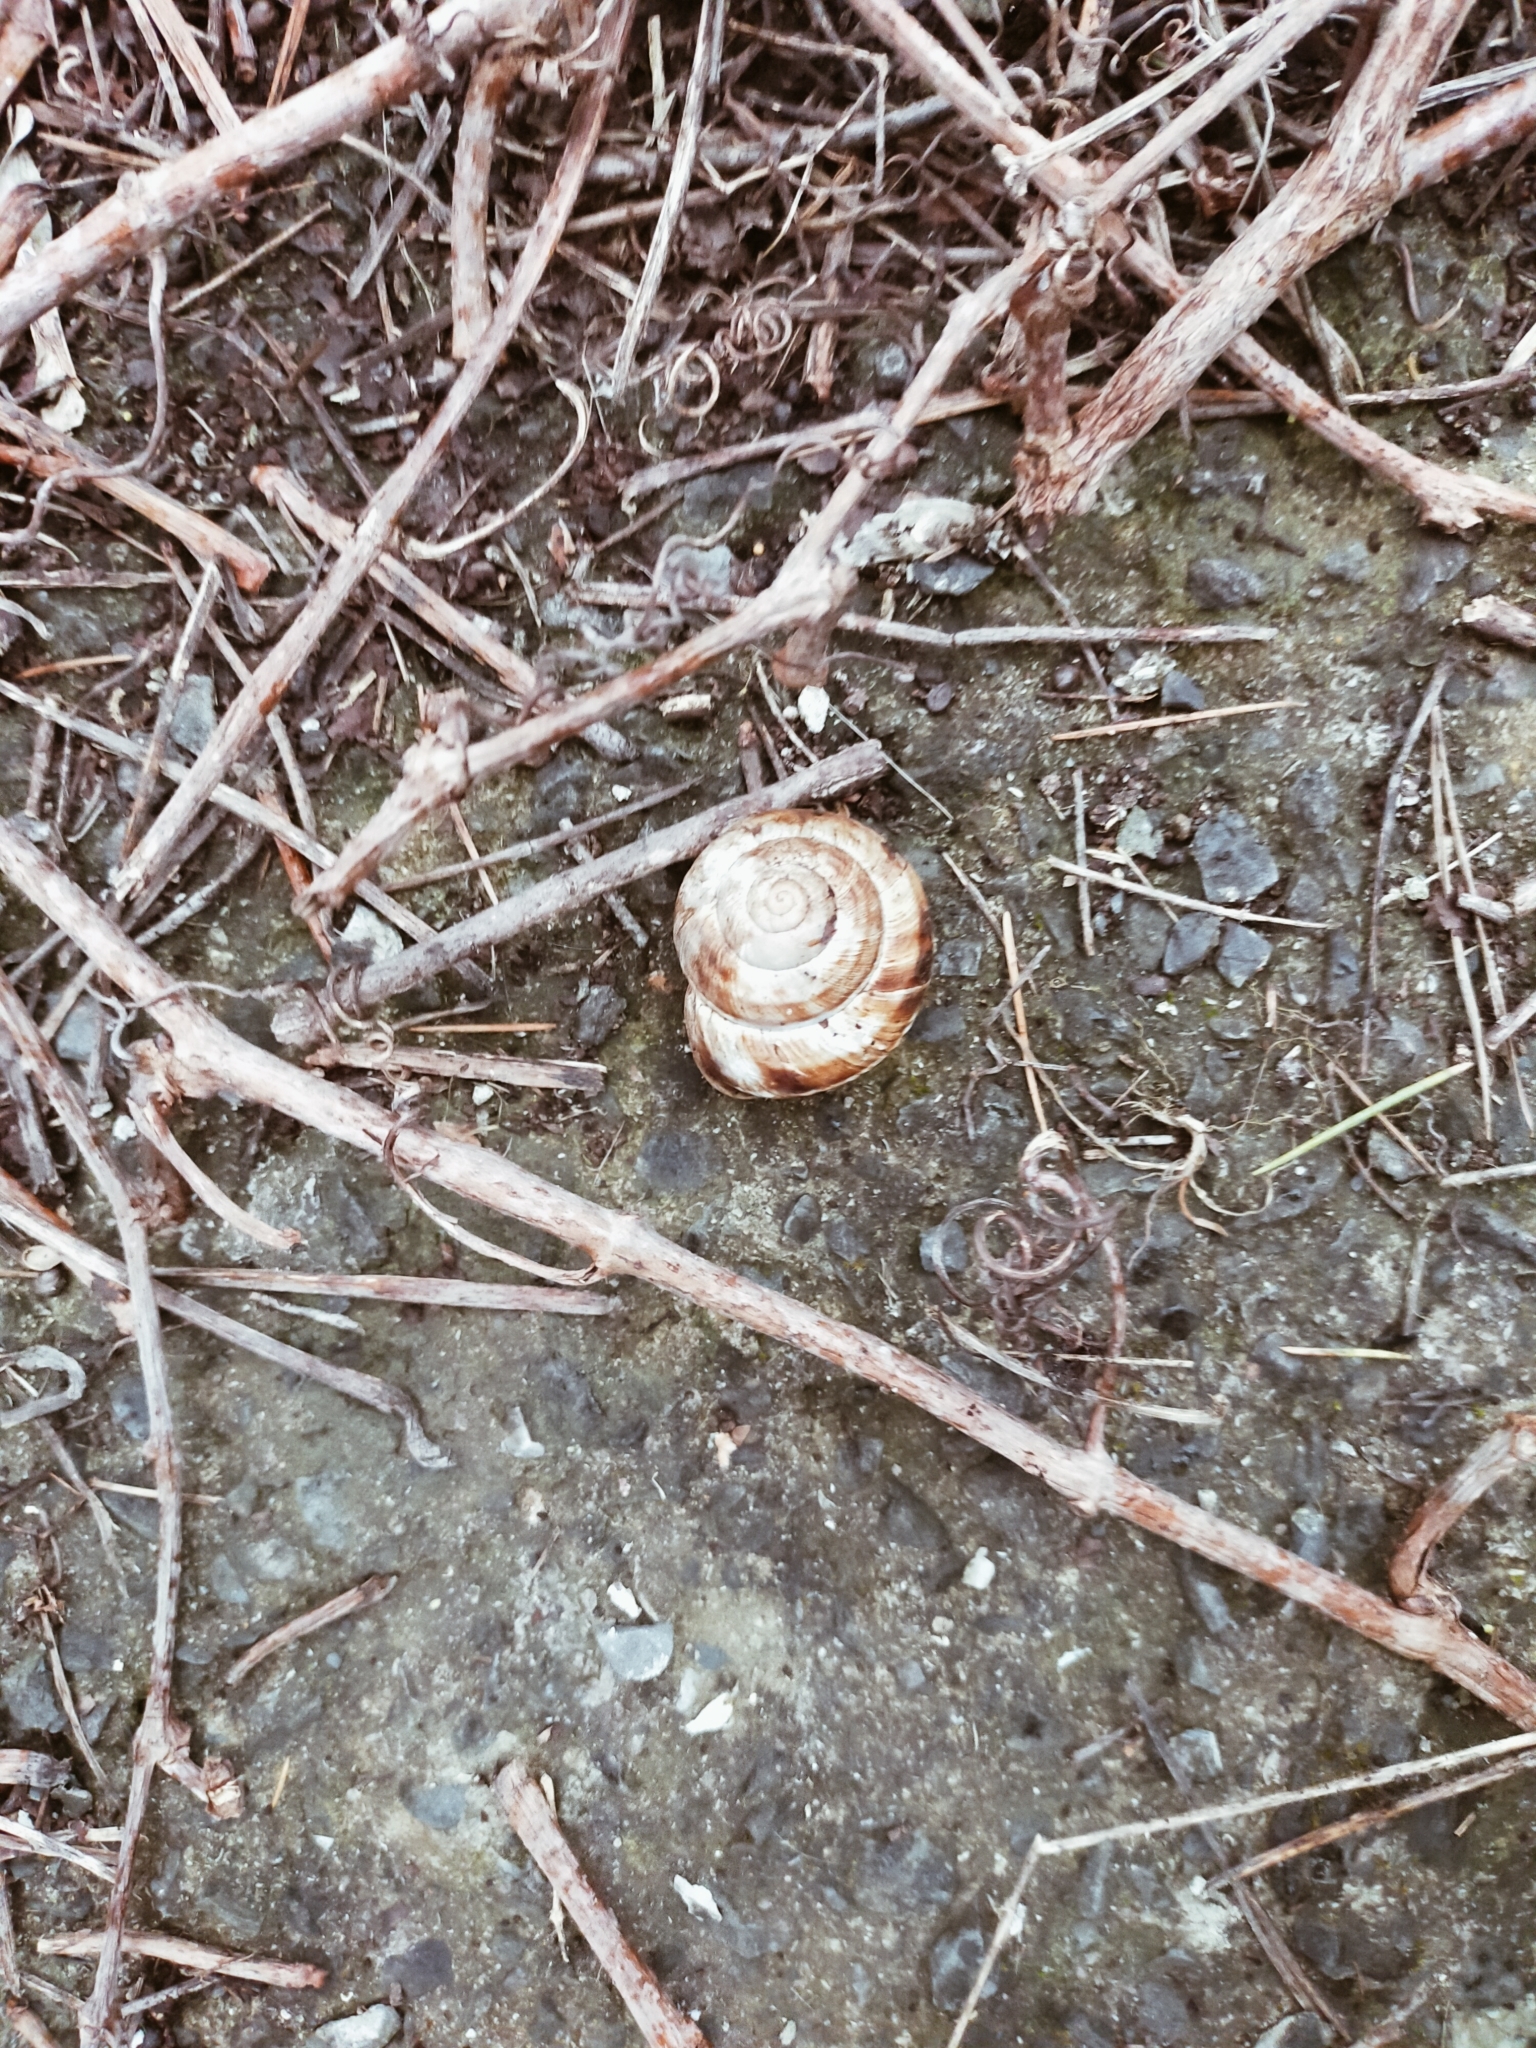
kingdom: Animalia
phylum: Mollusca
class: Gastropoda
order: Stylommatophora
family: Helicidae
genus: Helix
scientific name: Helix lucorum
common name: Turkish snail
